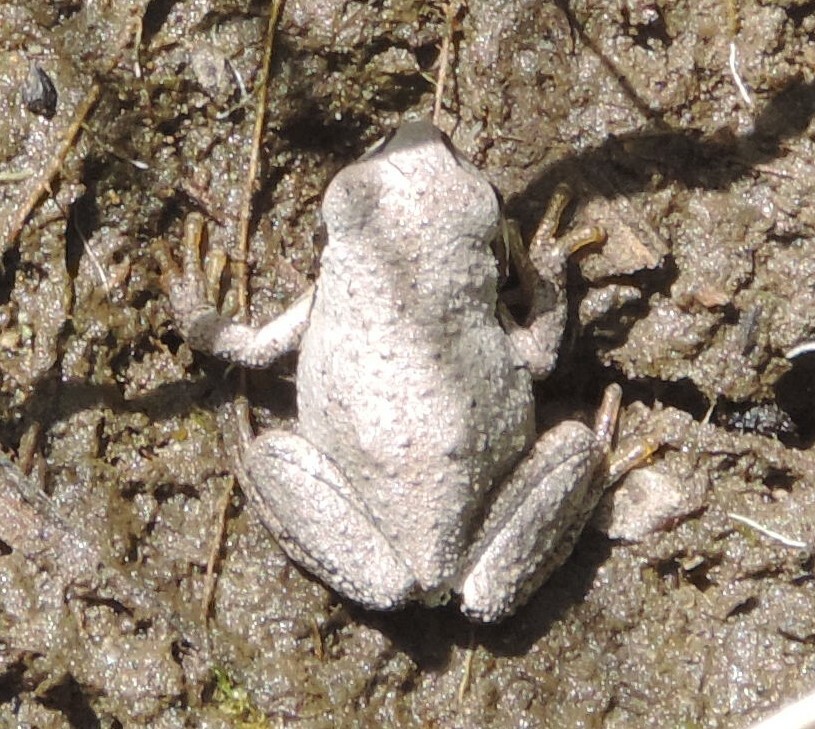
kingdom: Animalia
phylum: Chordata
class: Amphibia
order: Anura
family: Hylidae
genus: Pseudacris
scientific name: Pseudacris regilla
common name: Pacific chorus frog
